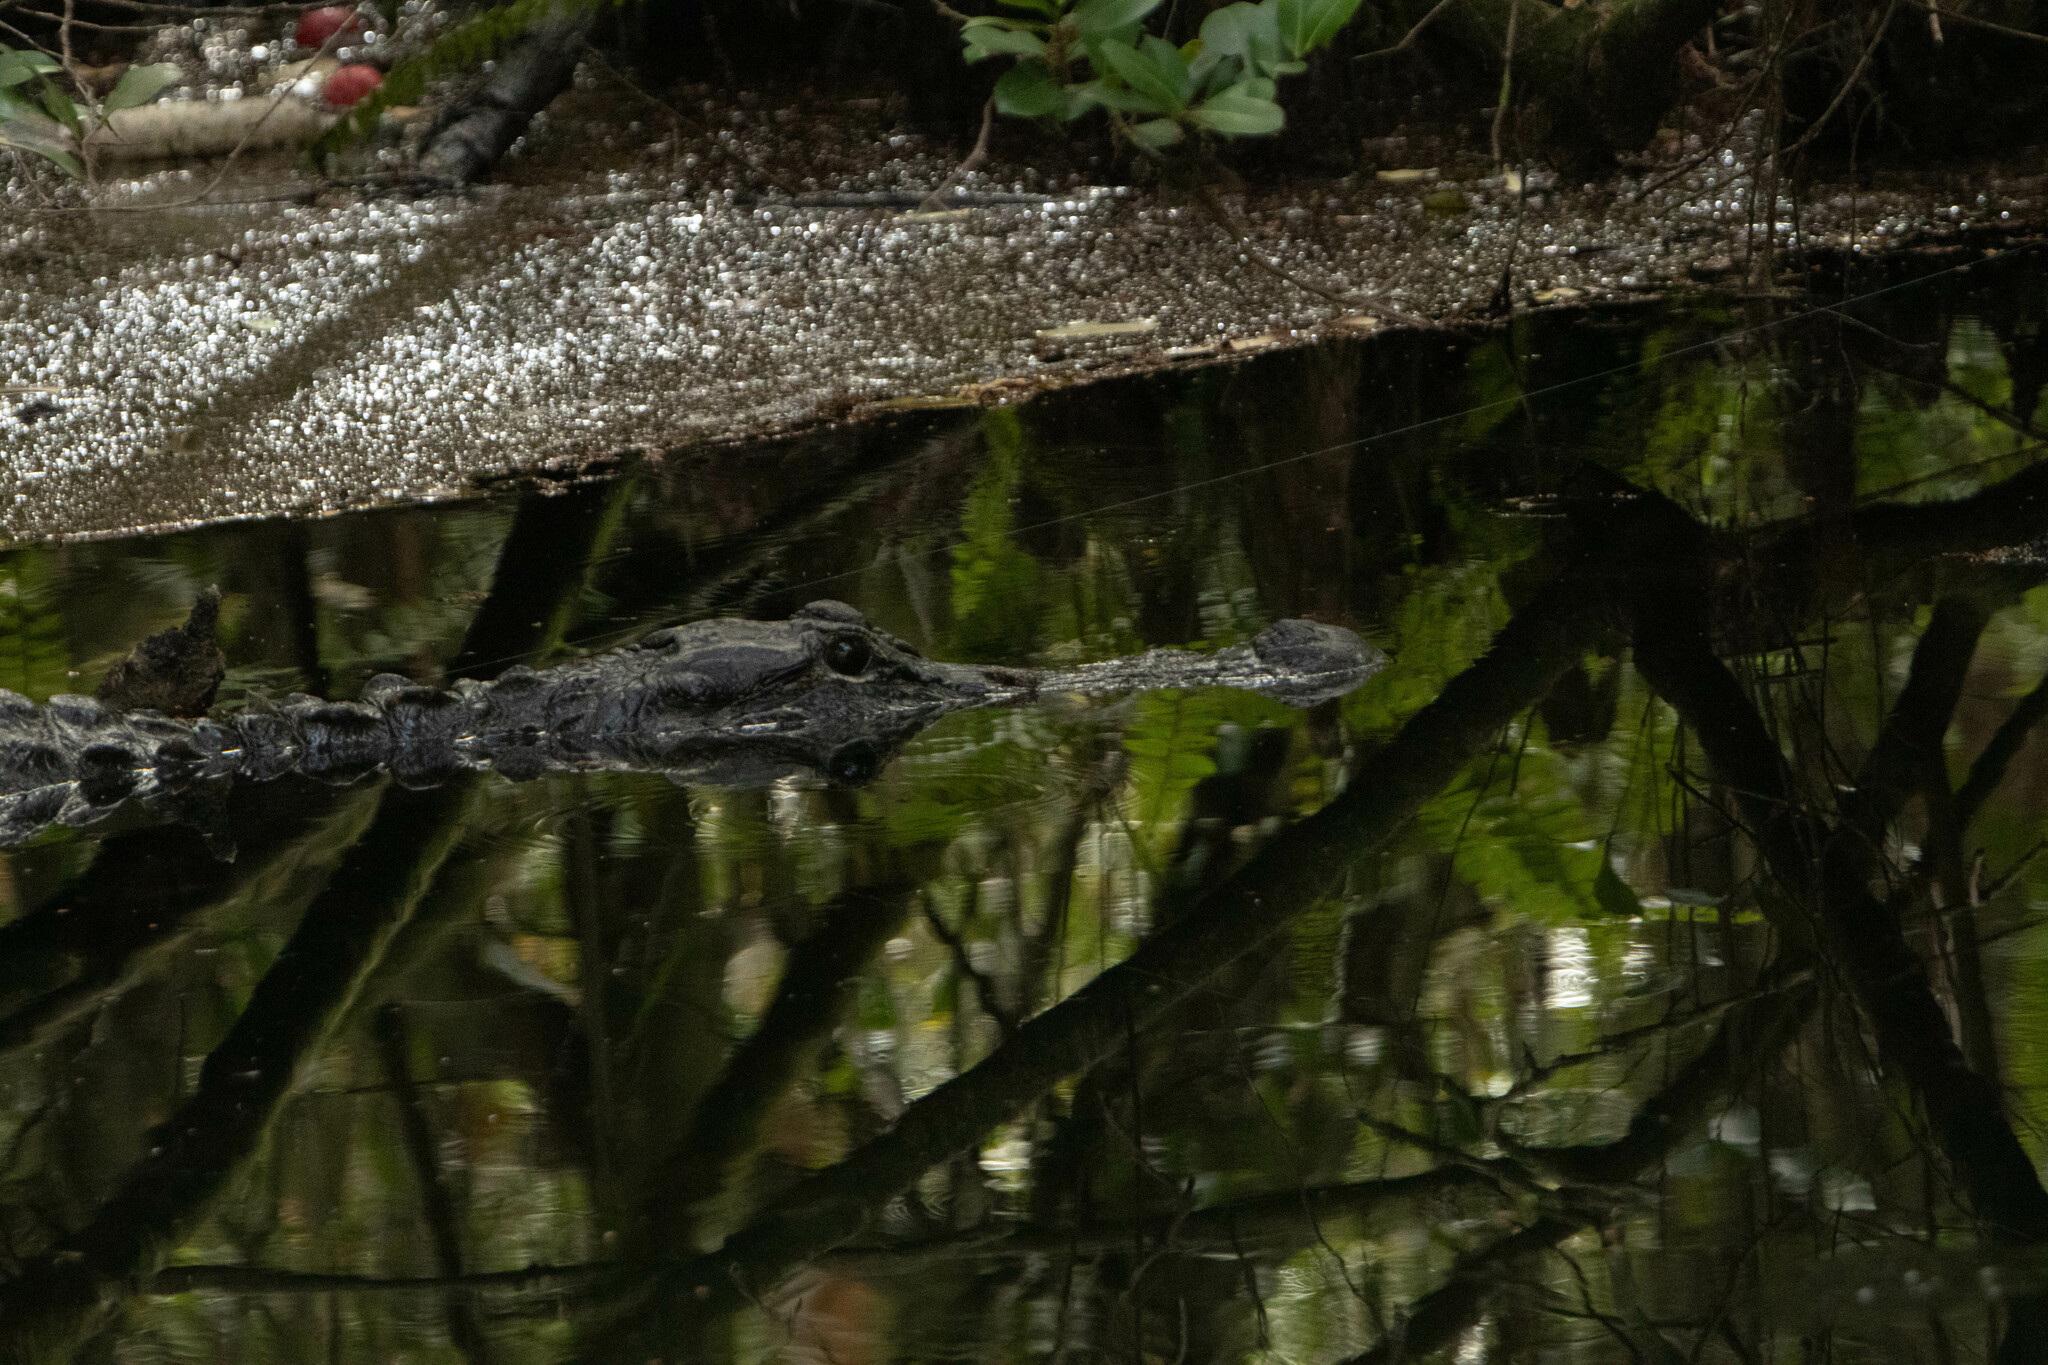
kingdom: Animalia
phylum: Chordata
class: Crocodylia
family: Alligatoridae
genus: Alligator
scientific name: Alligator mississippiensis
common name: American alligator
